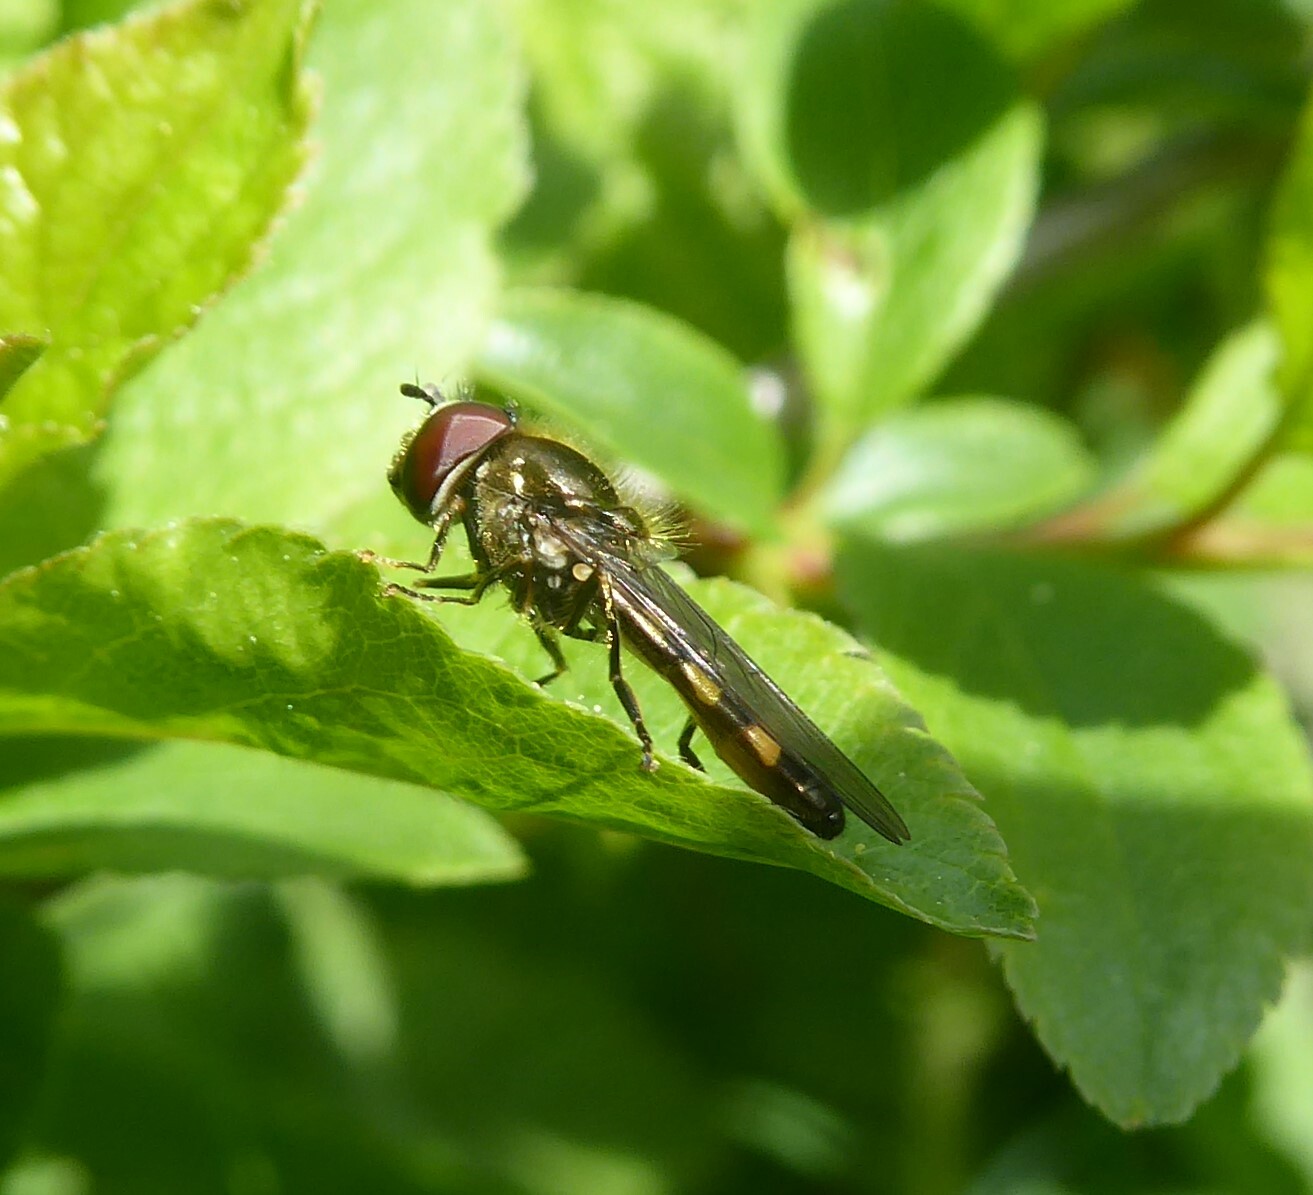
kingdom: Animalia
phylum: Arthropoda
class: Insecta
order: Diptera
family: Syrphidae
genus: Platycheirus
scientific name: Platycheirus
